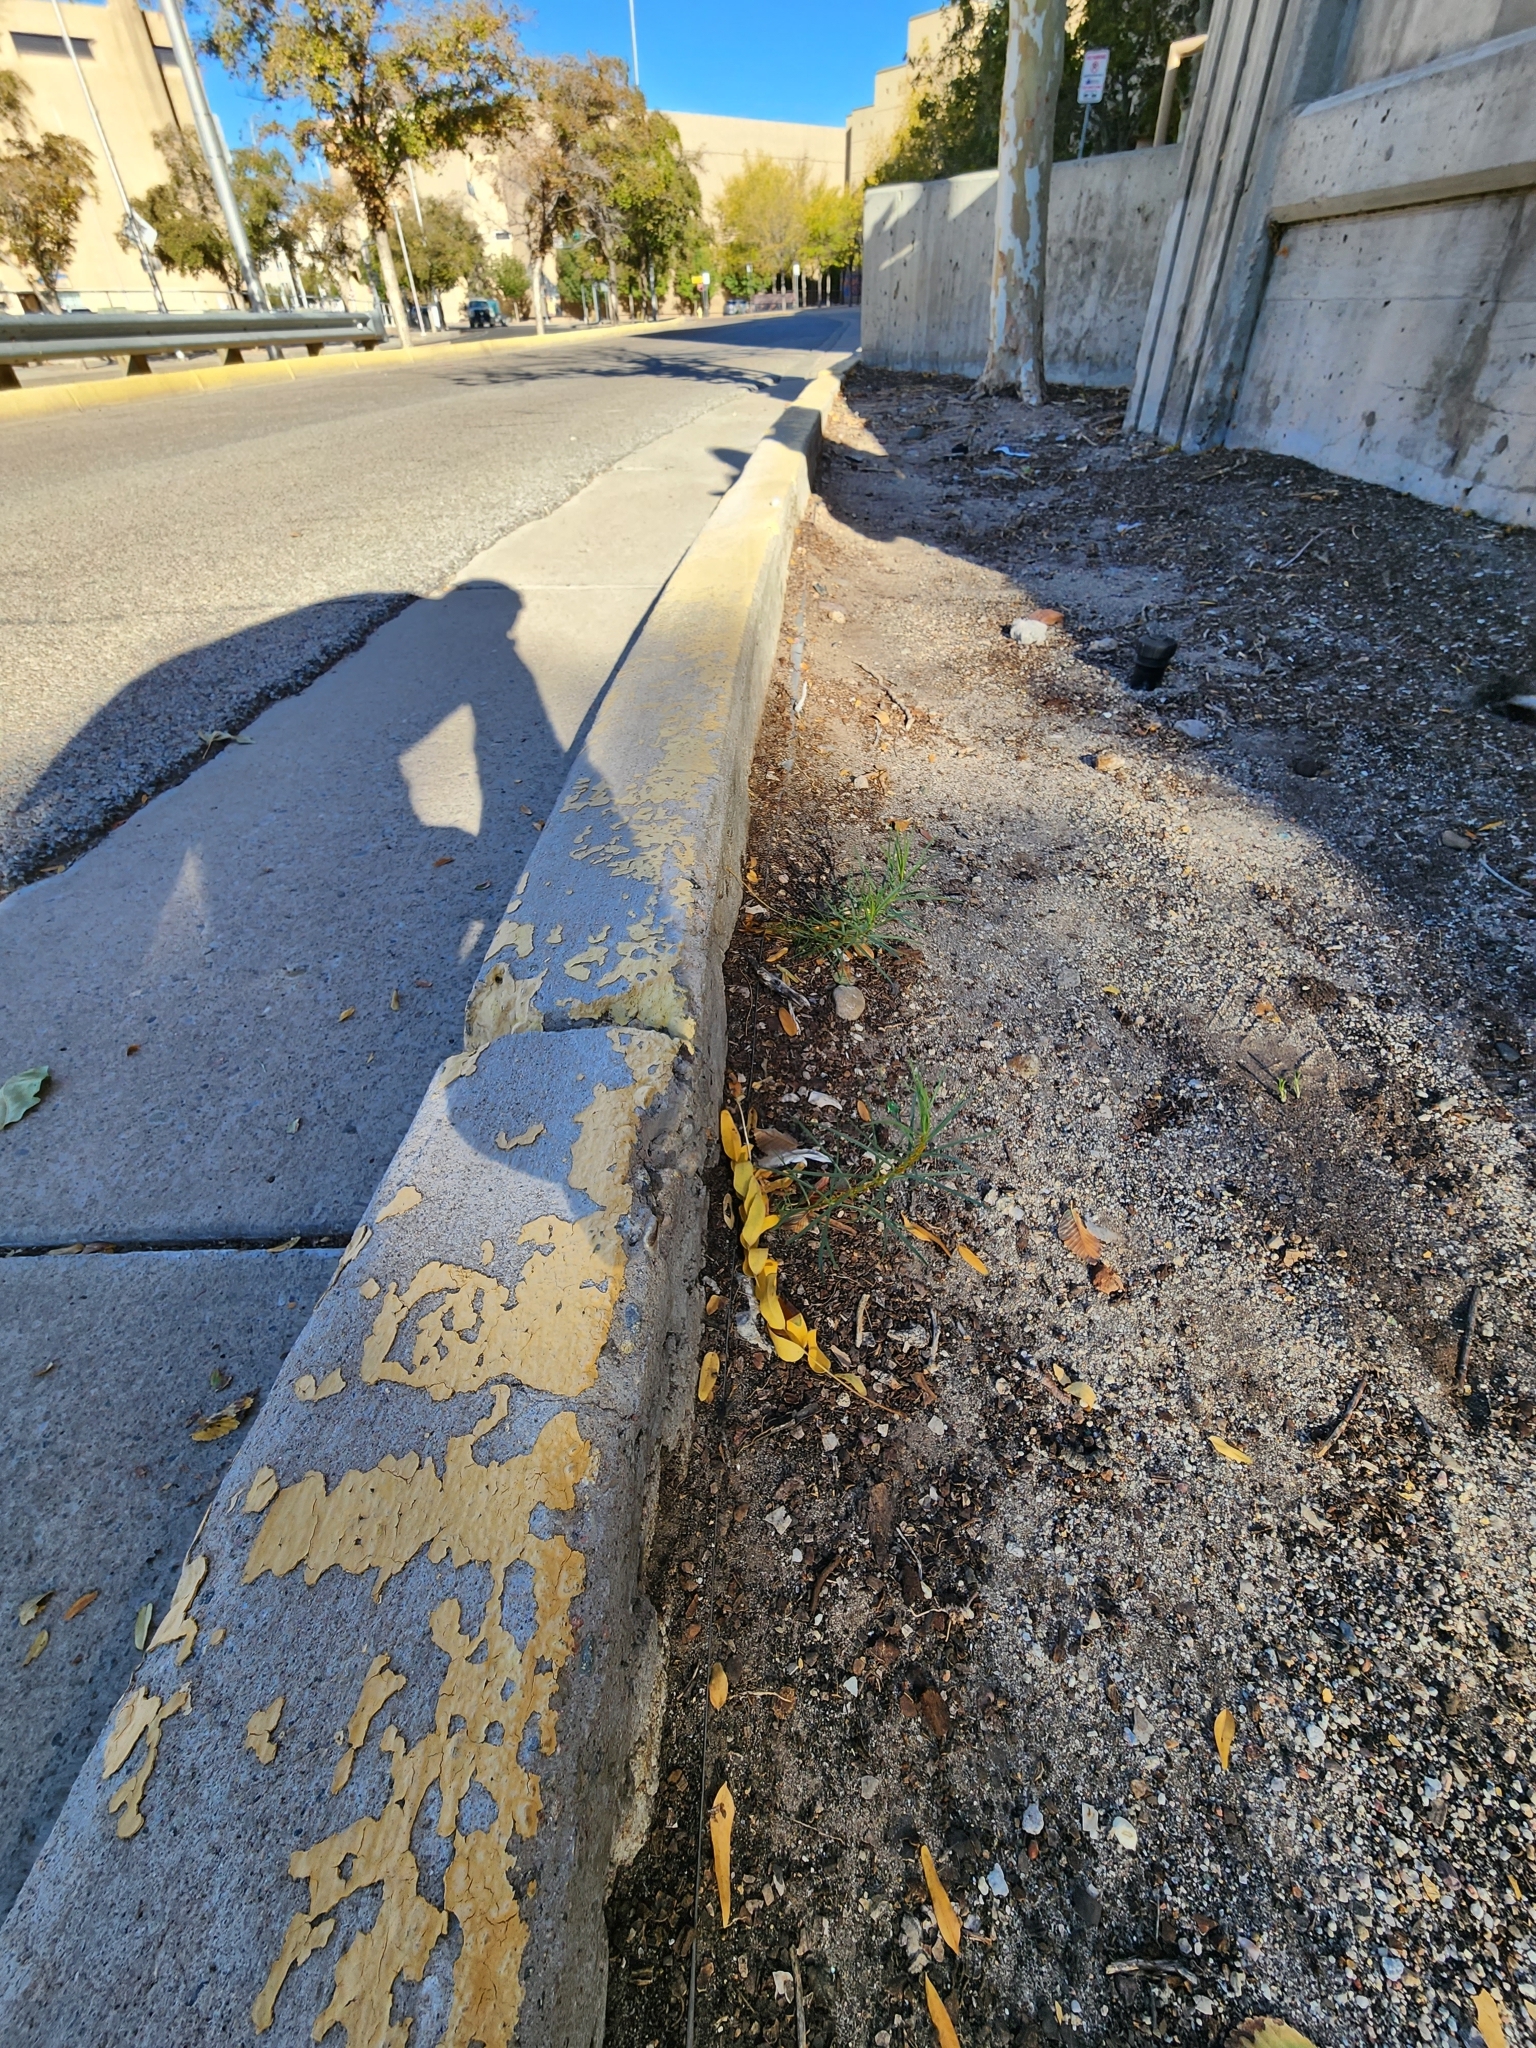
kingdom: Plantae
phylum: Tracheophyta
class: Magnoliopsida
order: Gentianales
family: Apocynaceae
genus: Asclepias
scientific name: Asclepias subverticillata
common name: Horsetail milkweed
